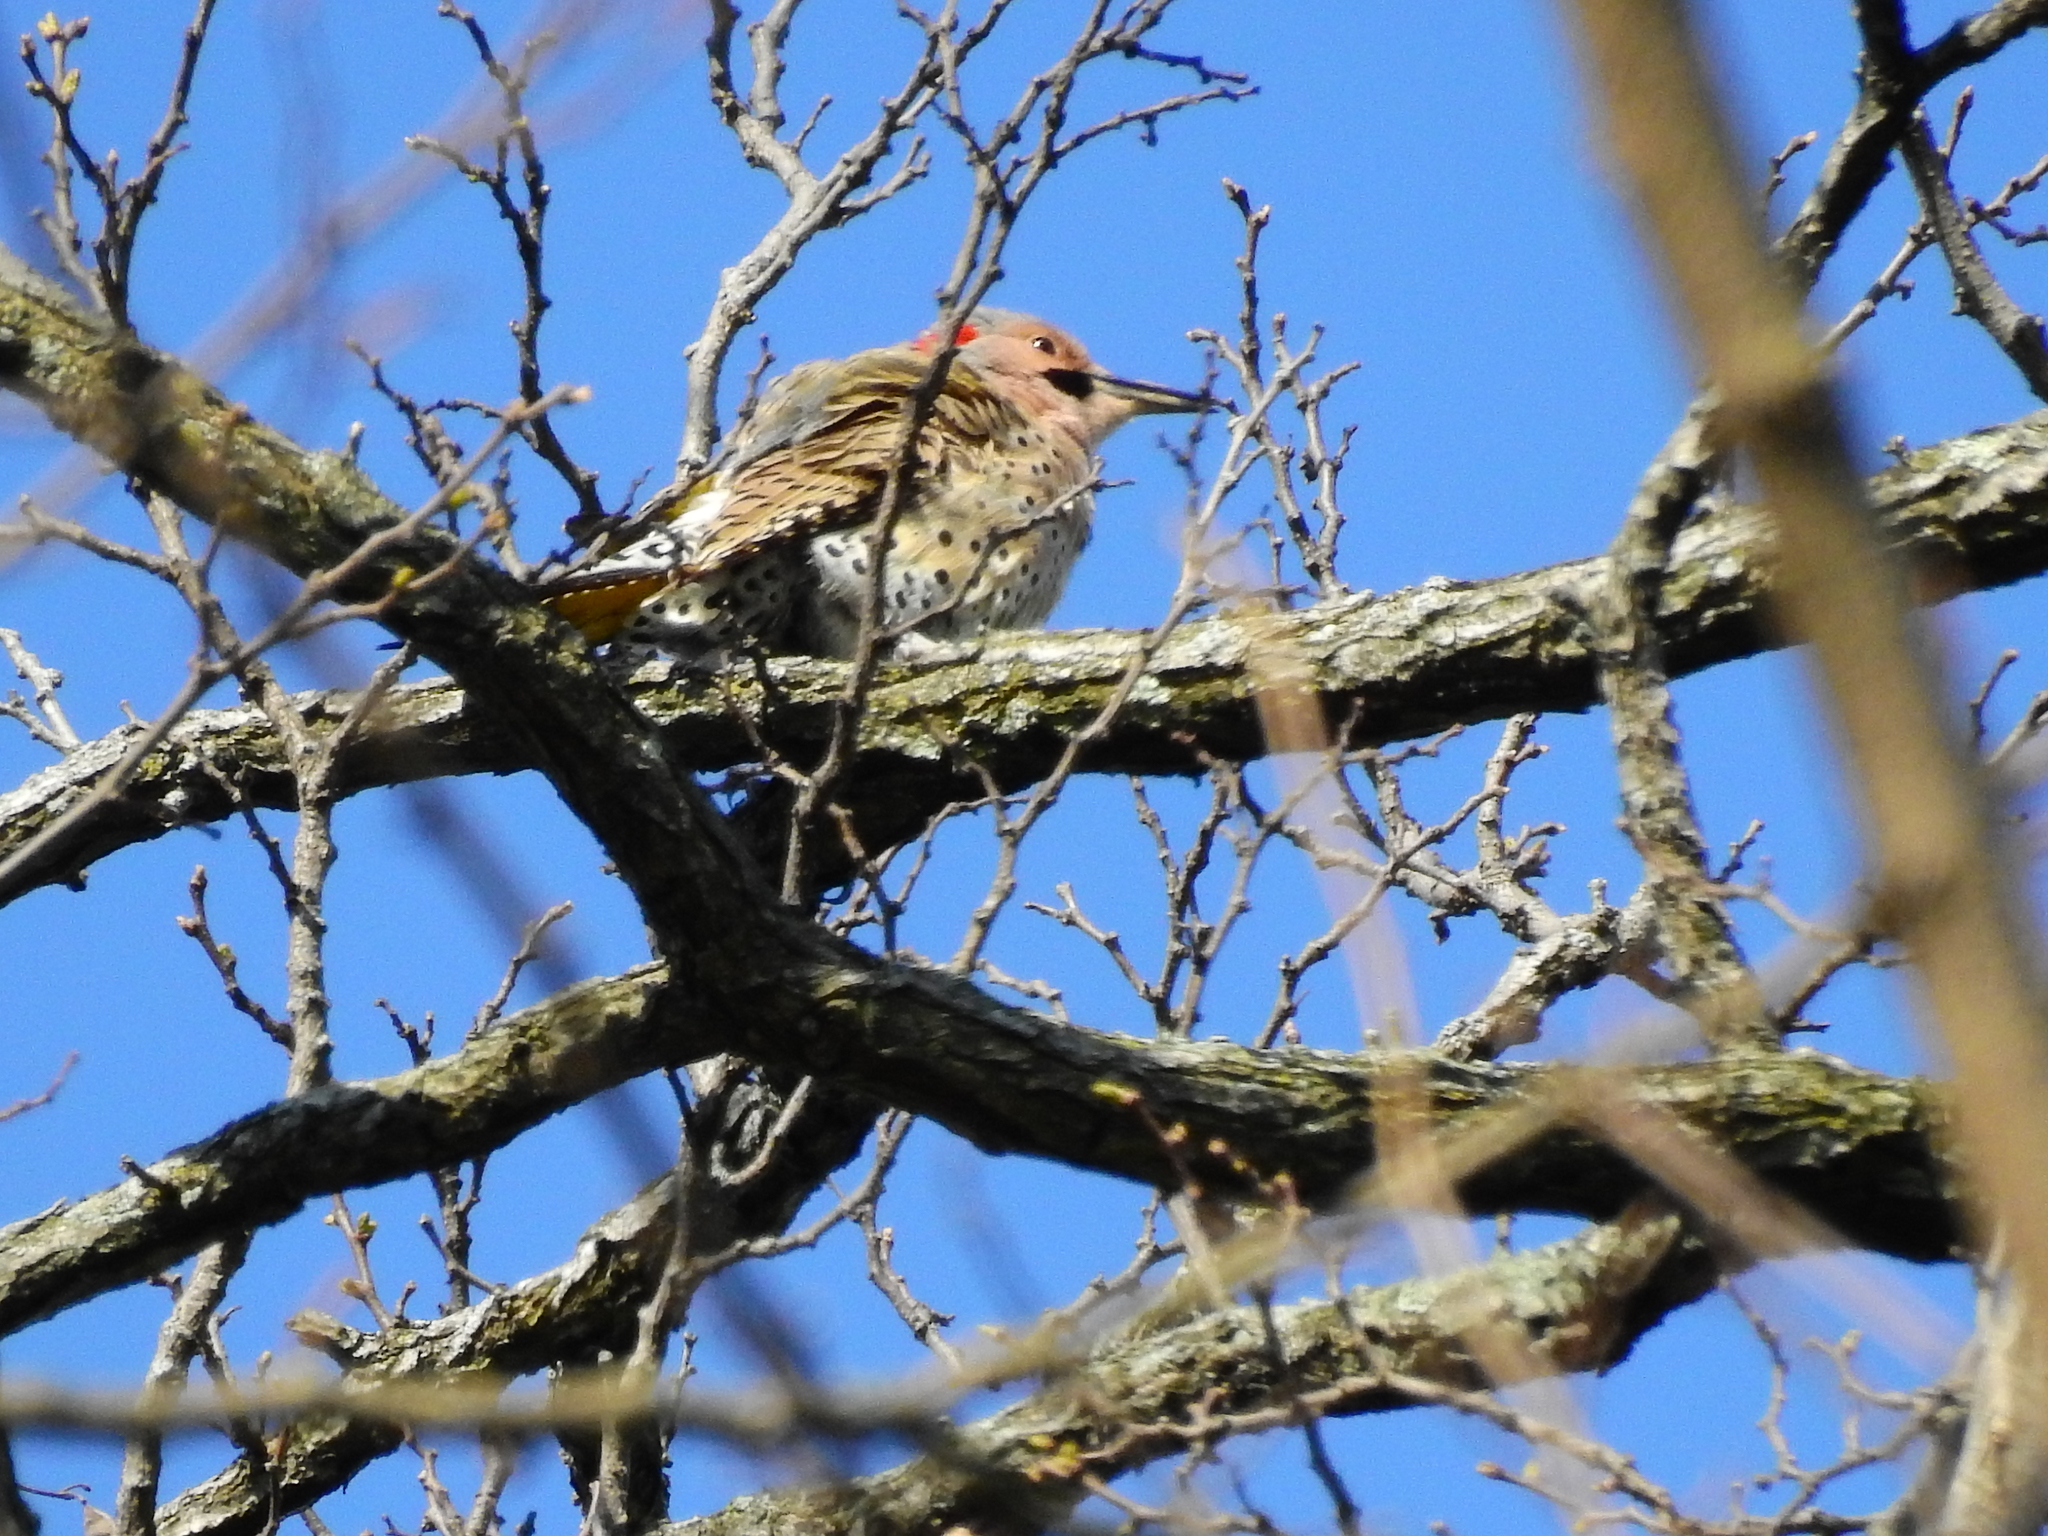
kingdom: Animalia
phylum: Chordata
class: Aves
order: Piciformes
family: Picidae
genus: Colaptes
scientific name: Colaptes auratus
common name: Northern flicker
